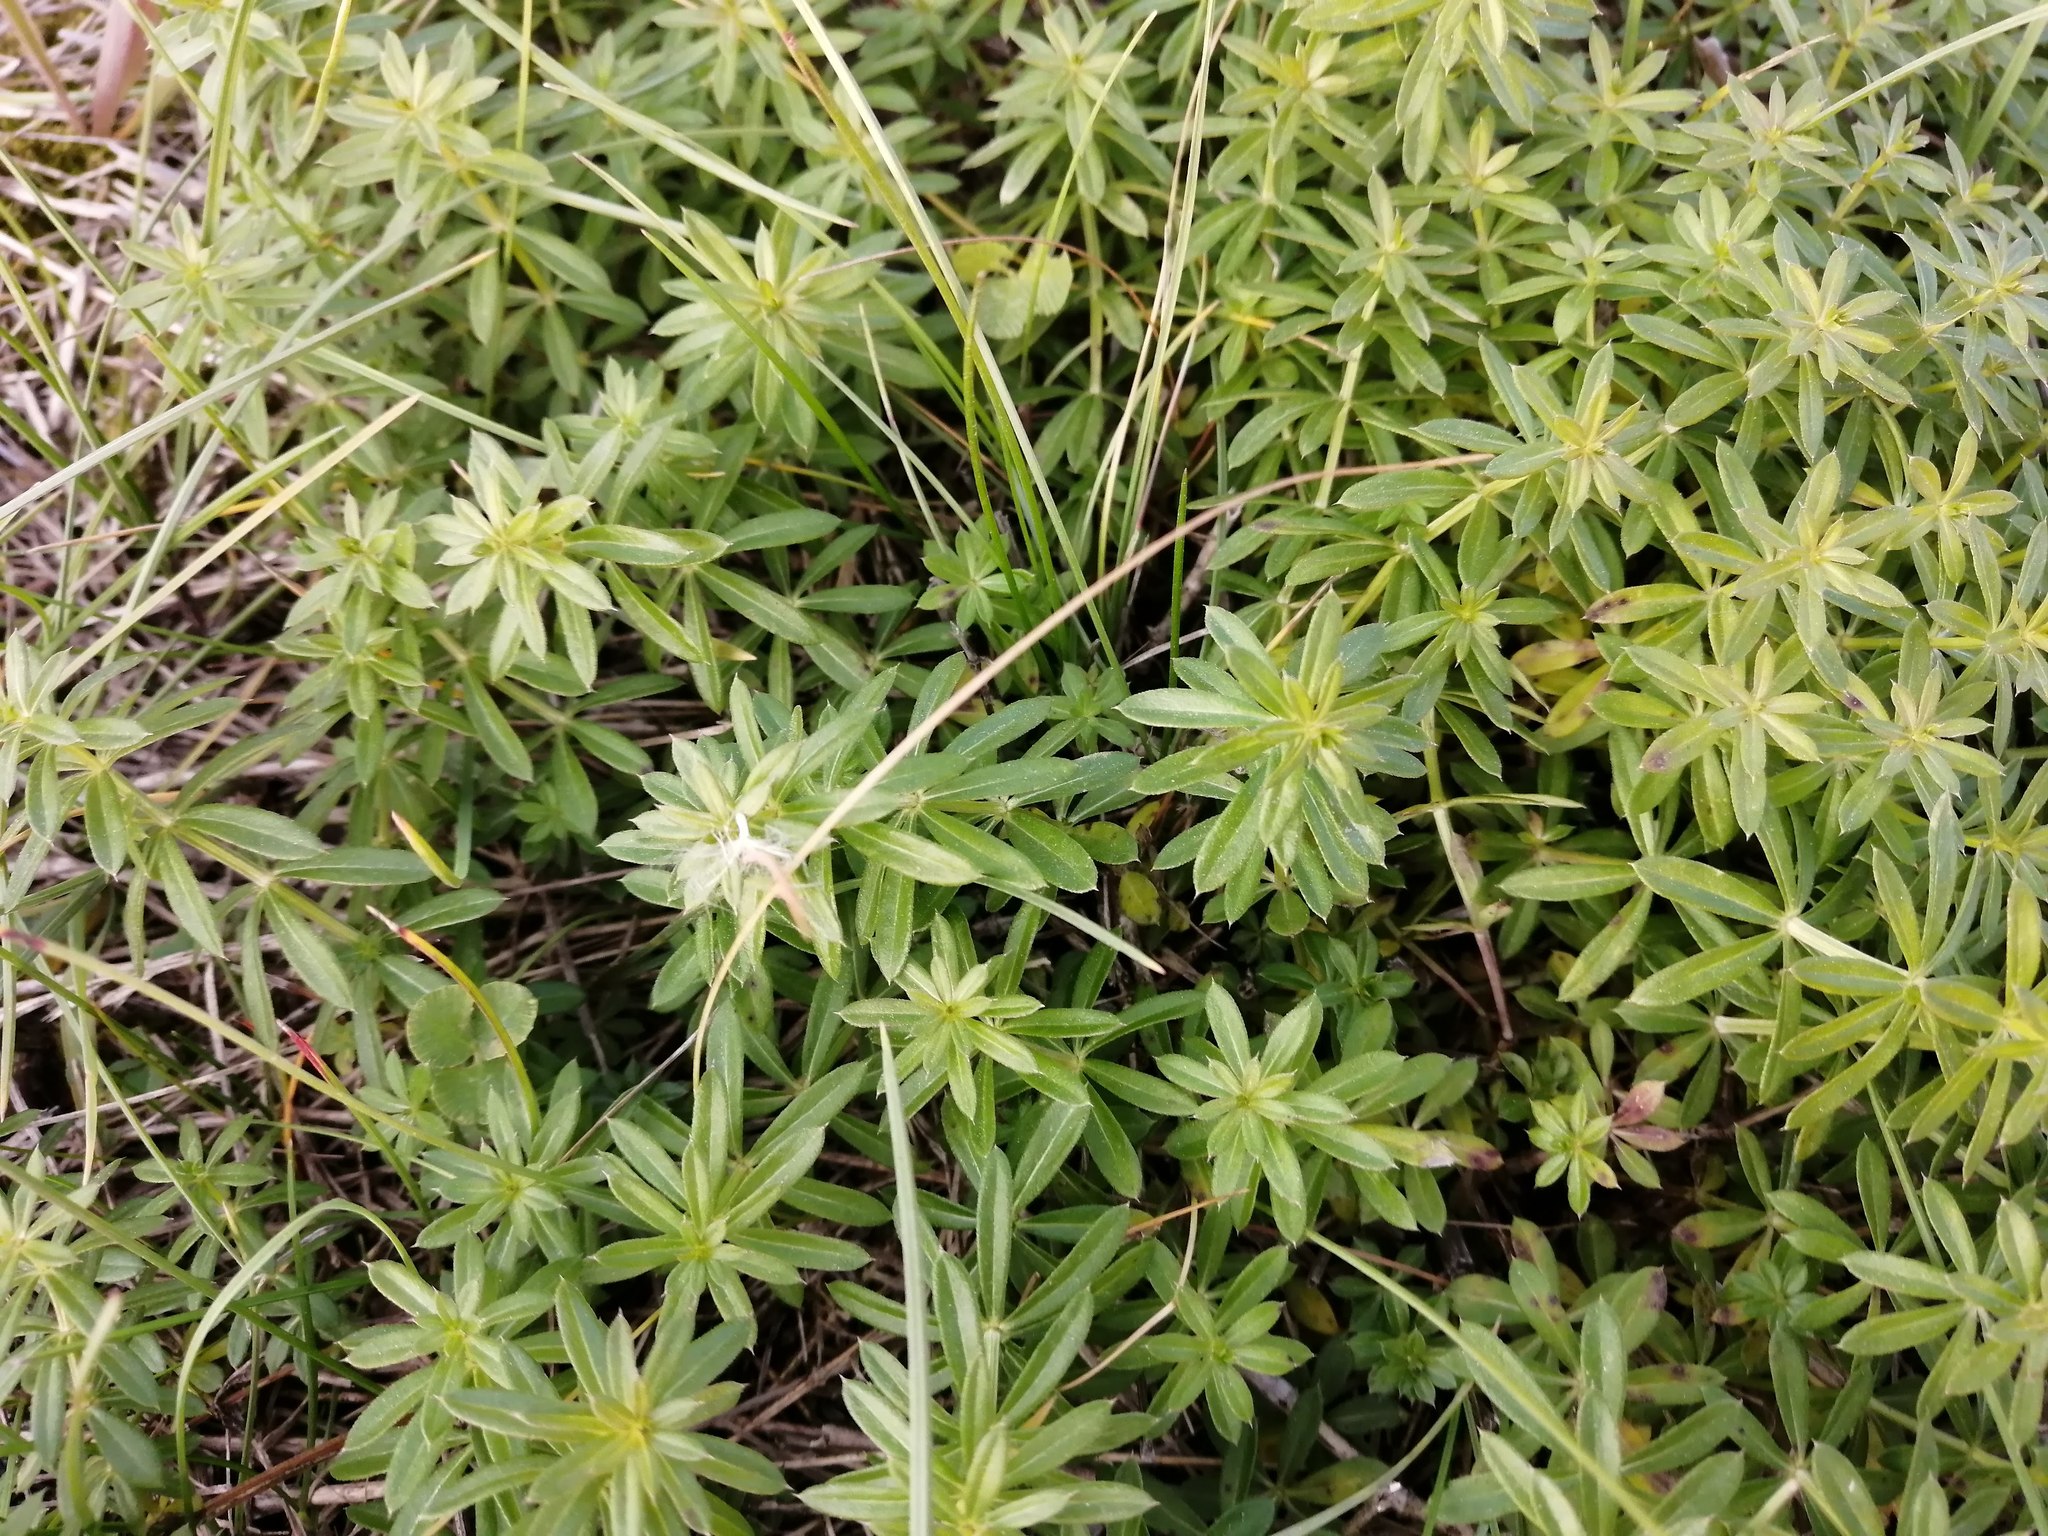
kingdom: Plantae
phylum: Tracheophyta
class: Magnoliopsida
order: Gentianales
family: Rubiaceae
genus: Galium
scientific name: Galium mollugo
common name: Hedge bedstraw
